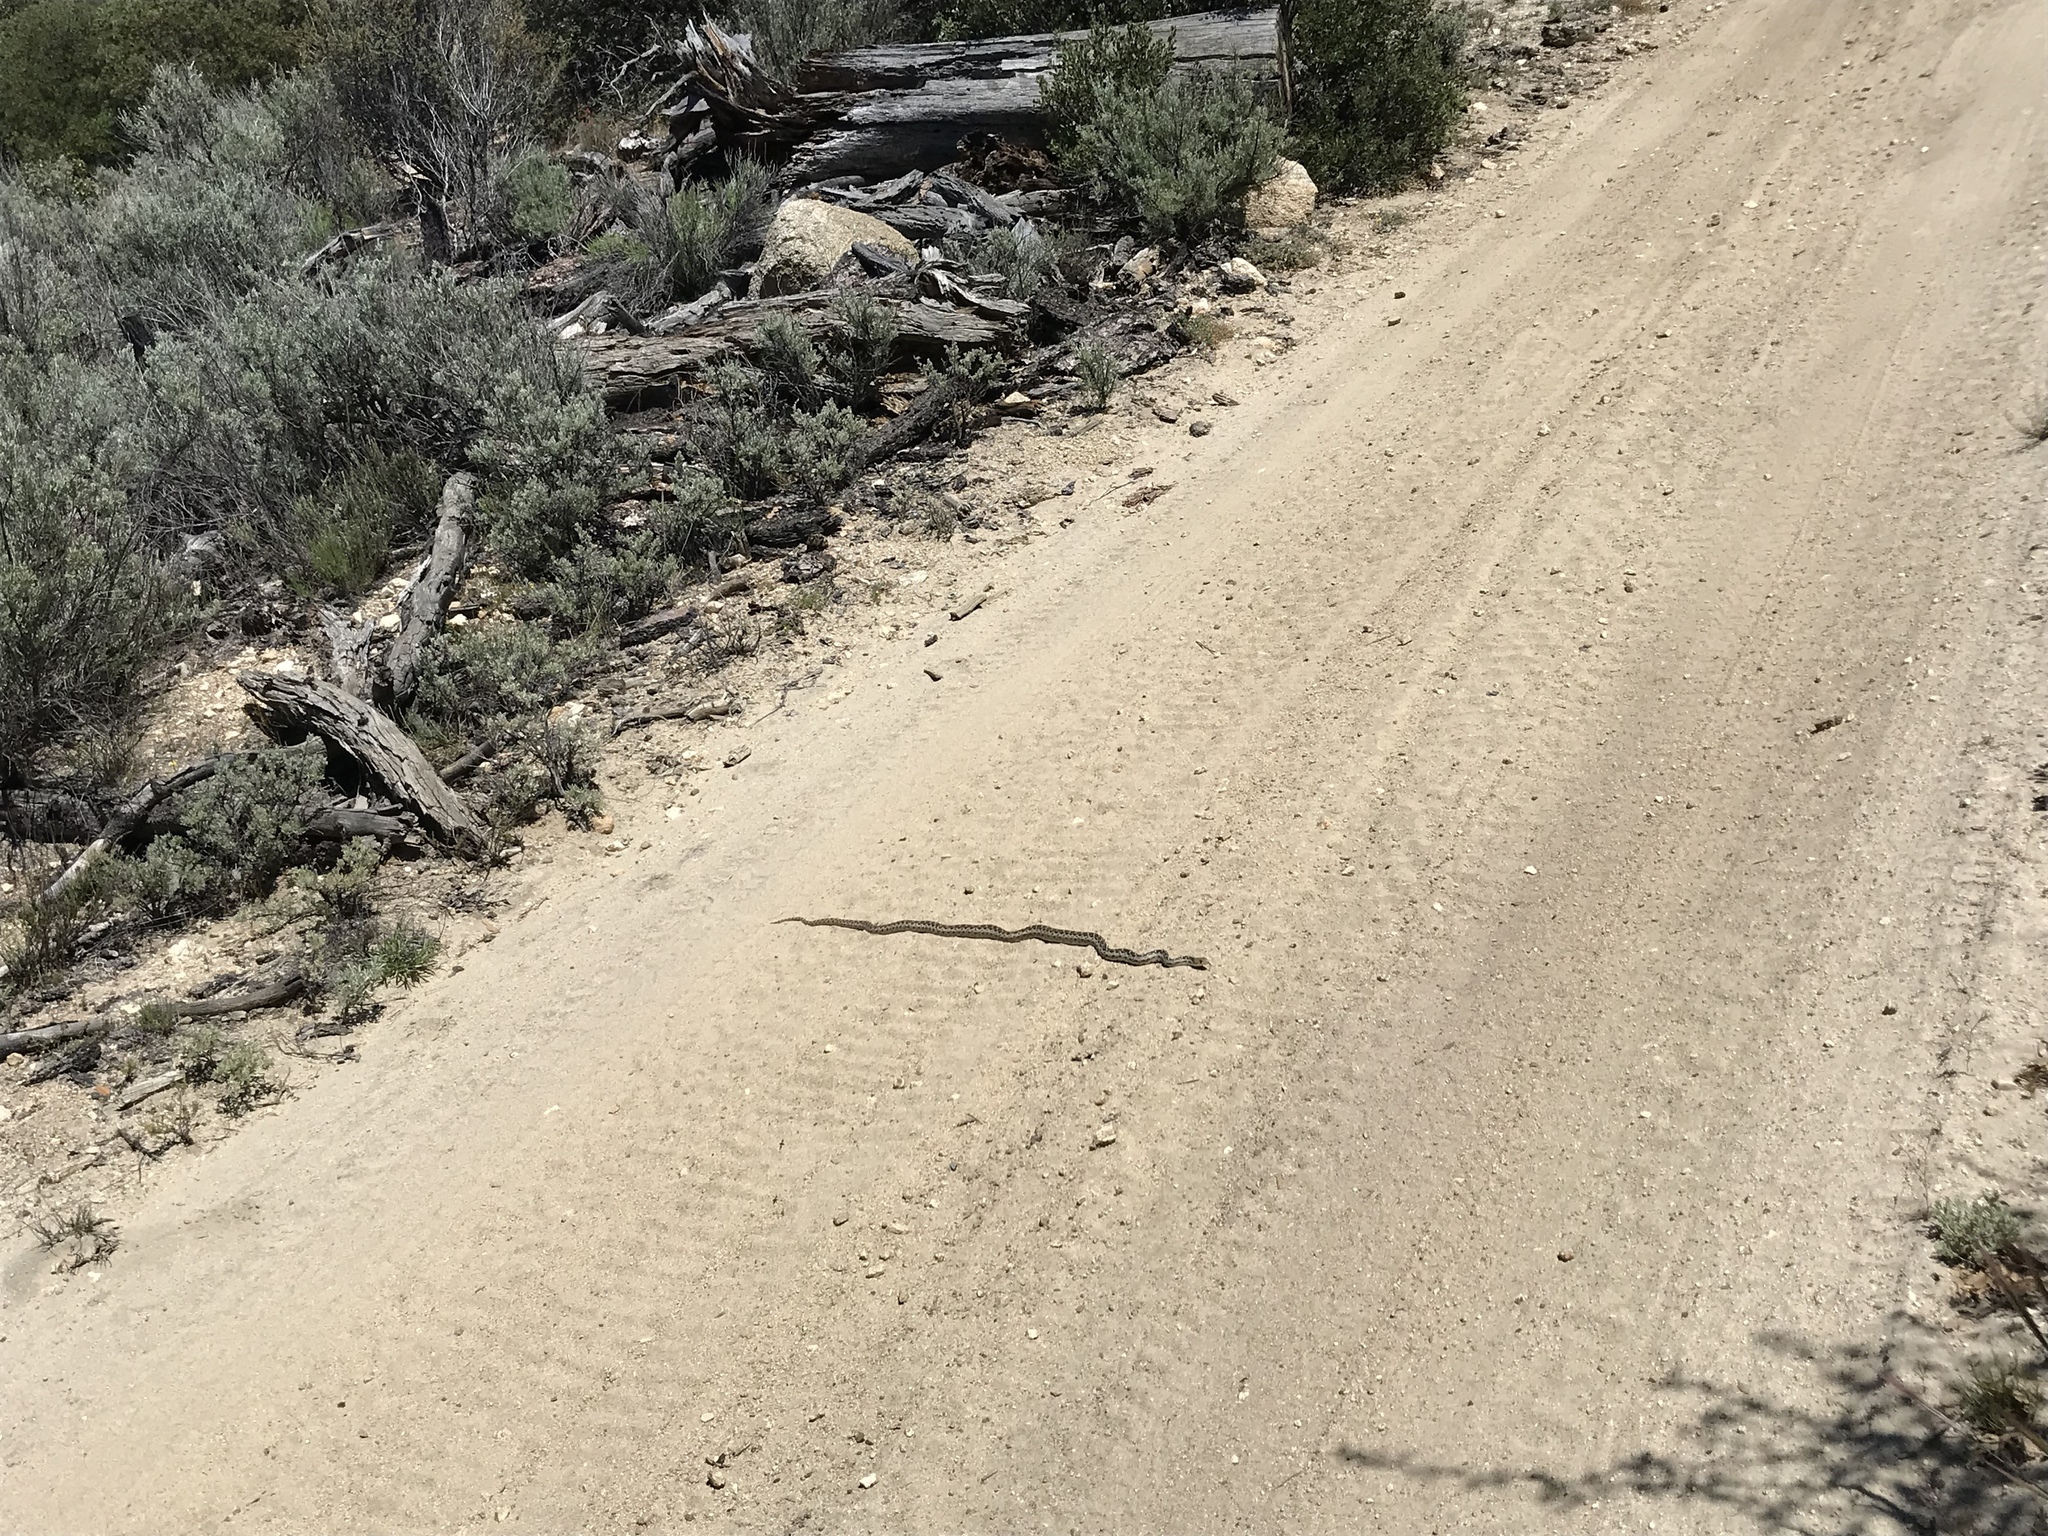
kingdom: Animalia
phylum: Chordata
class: Squamata
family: Colubridae
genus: Pituophis
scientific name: Pituophis catenifer
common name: Gopher snake
